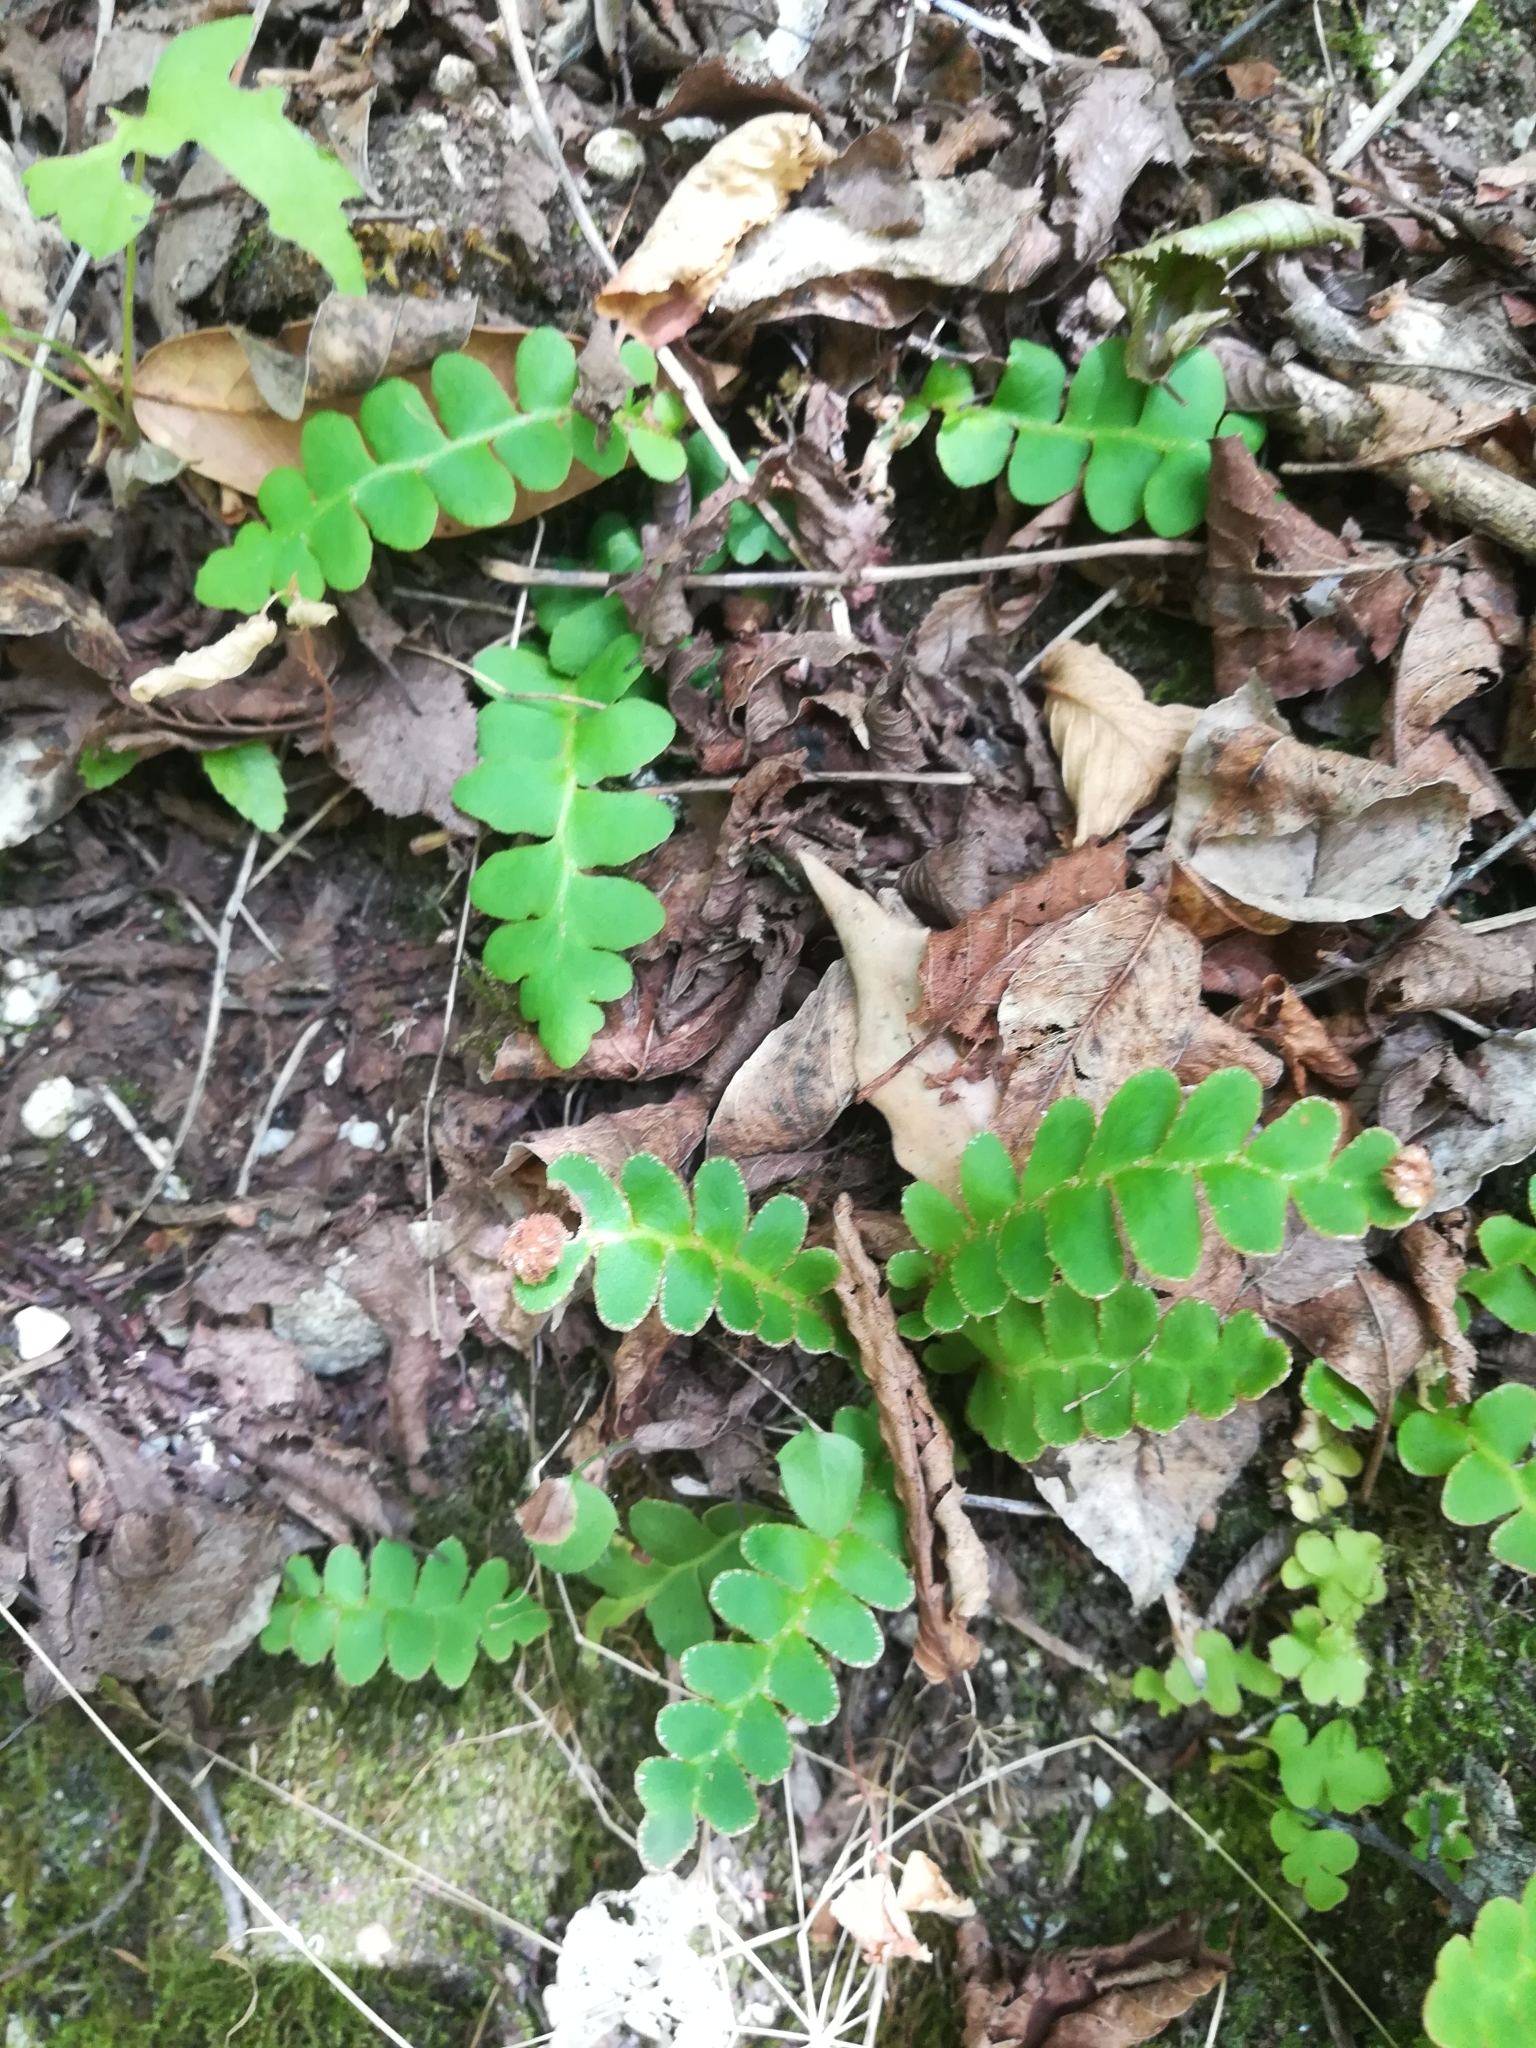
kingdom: Plantae
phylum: Tracheophyta
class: Polypodiopsida
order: Polypodiales
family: Aspleniaceae
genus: Asplenium
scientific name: Asplenium ceterach
